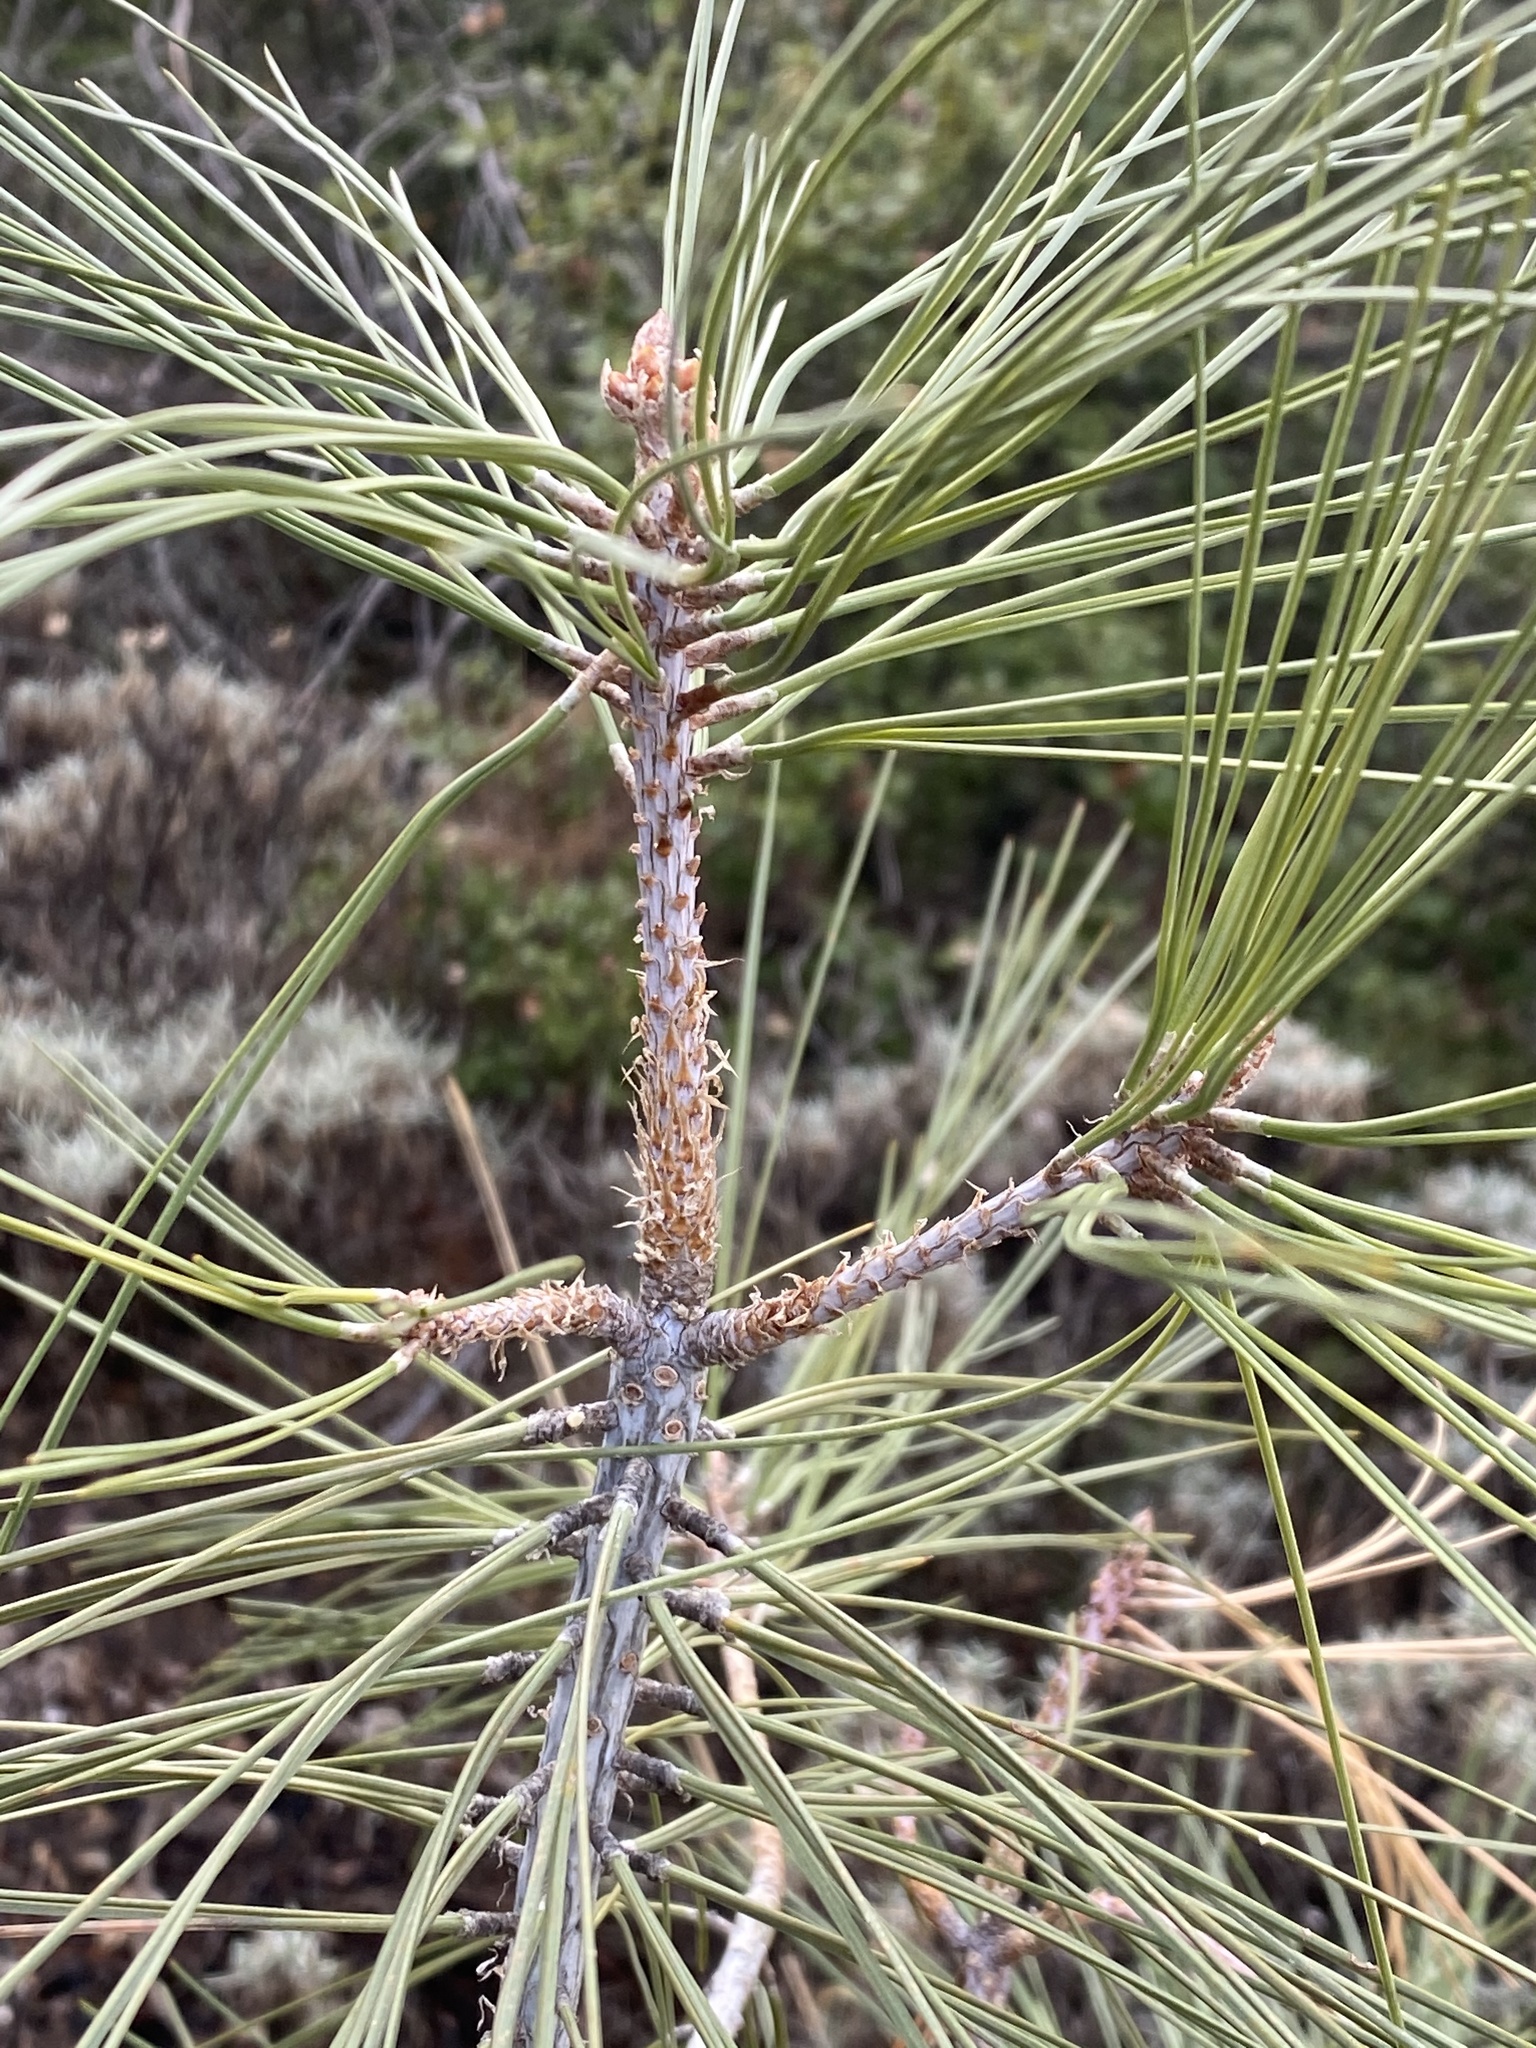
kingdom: Plantae
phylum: Tracheophyta
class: Pinopsida
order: Pinales
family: Pinaceae
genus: Pinus
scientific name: Pinus sabiniana
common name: Bull pine
